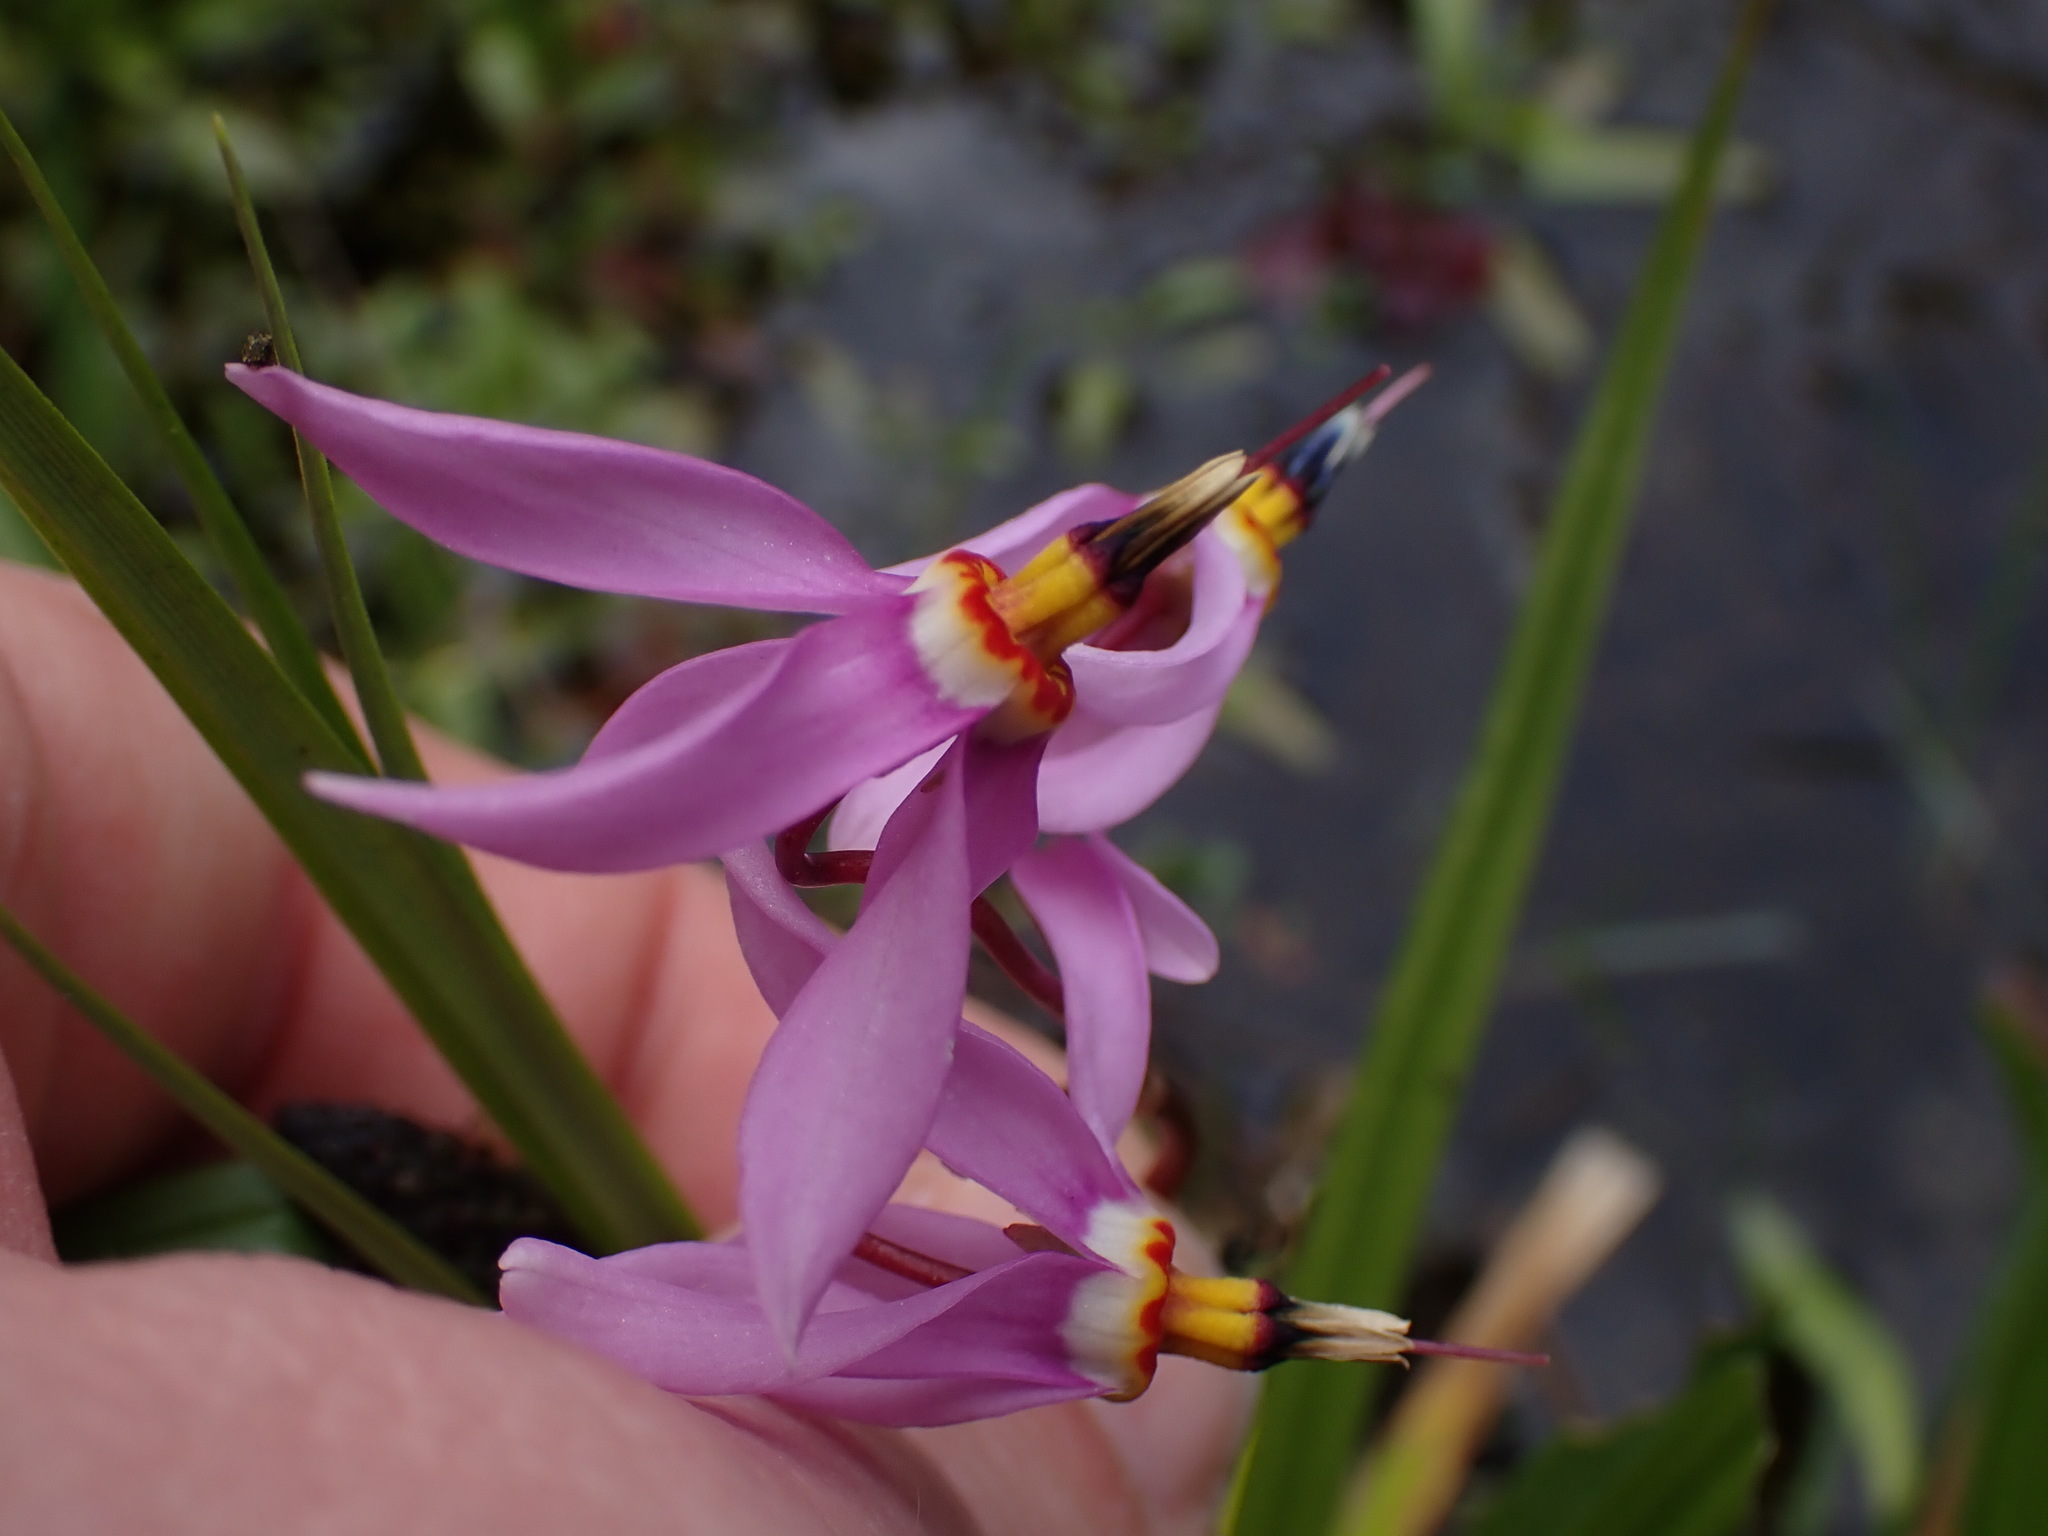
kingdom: Plantae
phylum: Tracheophyta
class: Magnoliopsida
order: Ericales
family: Primulaceae
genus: Dodecatheon
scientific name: Dodecatheon pulchellum
